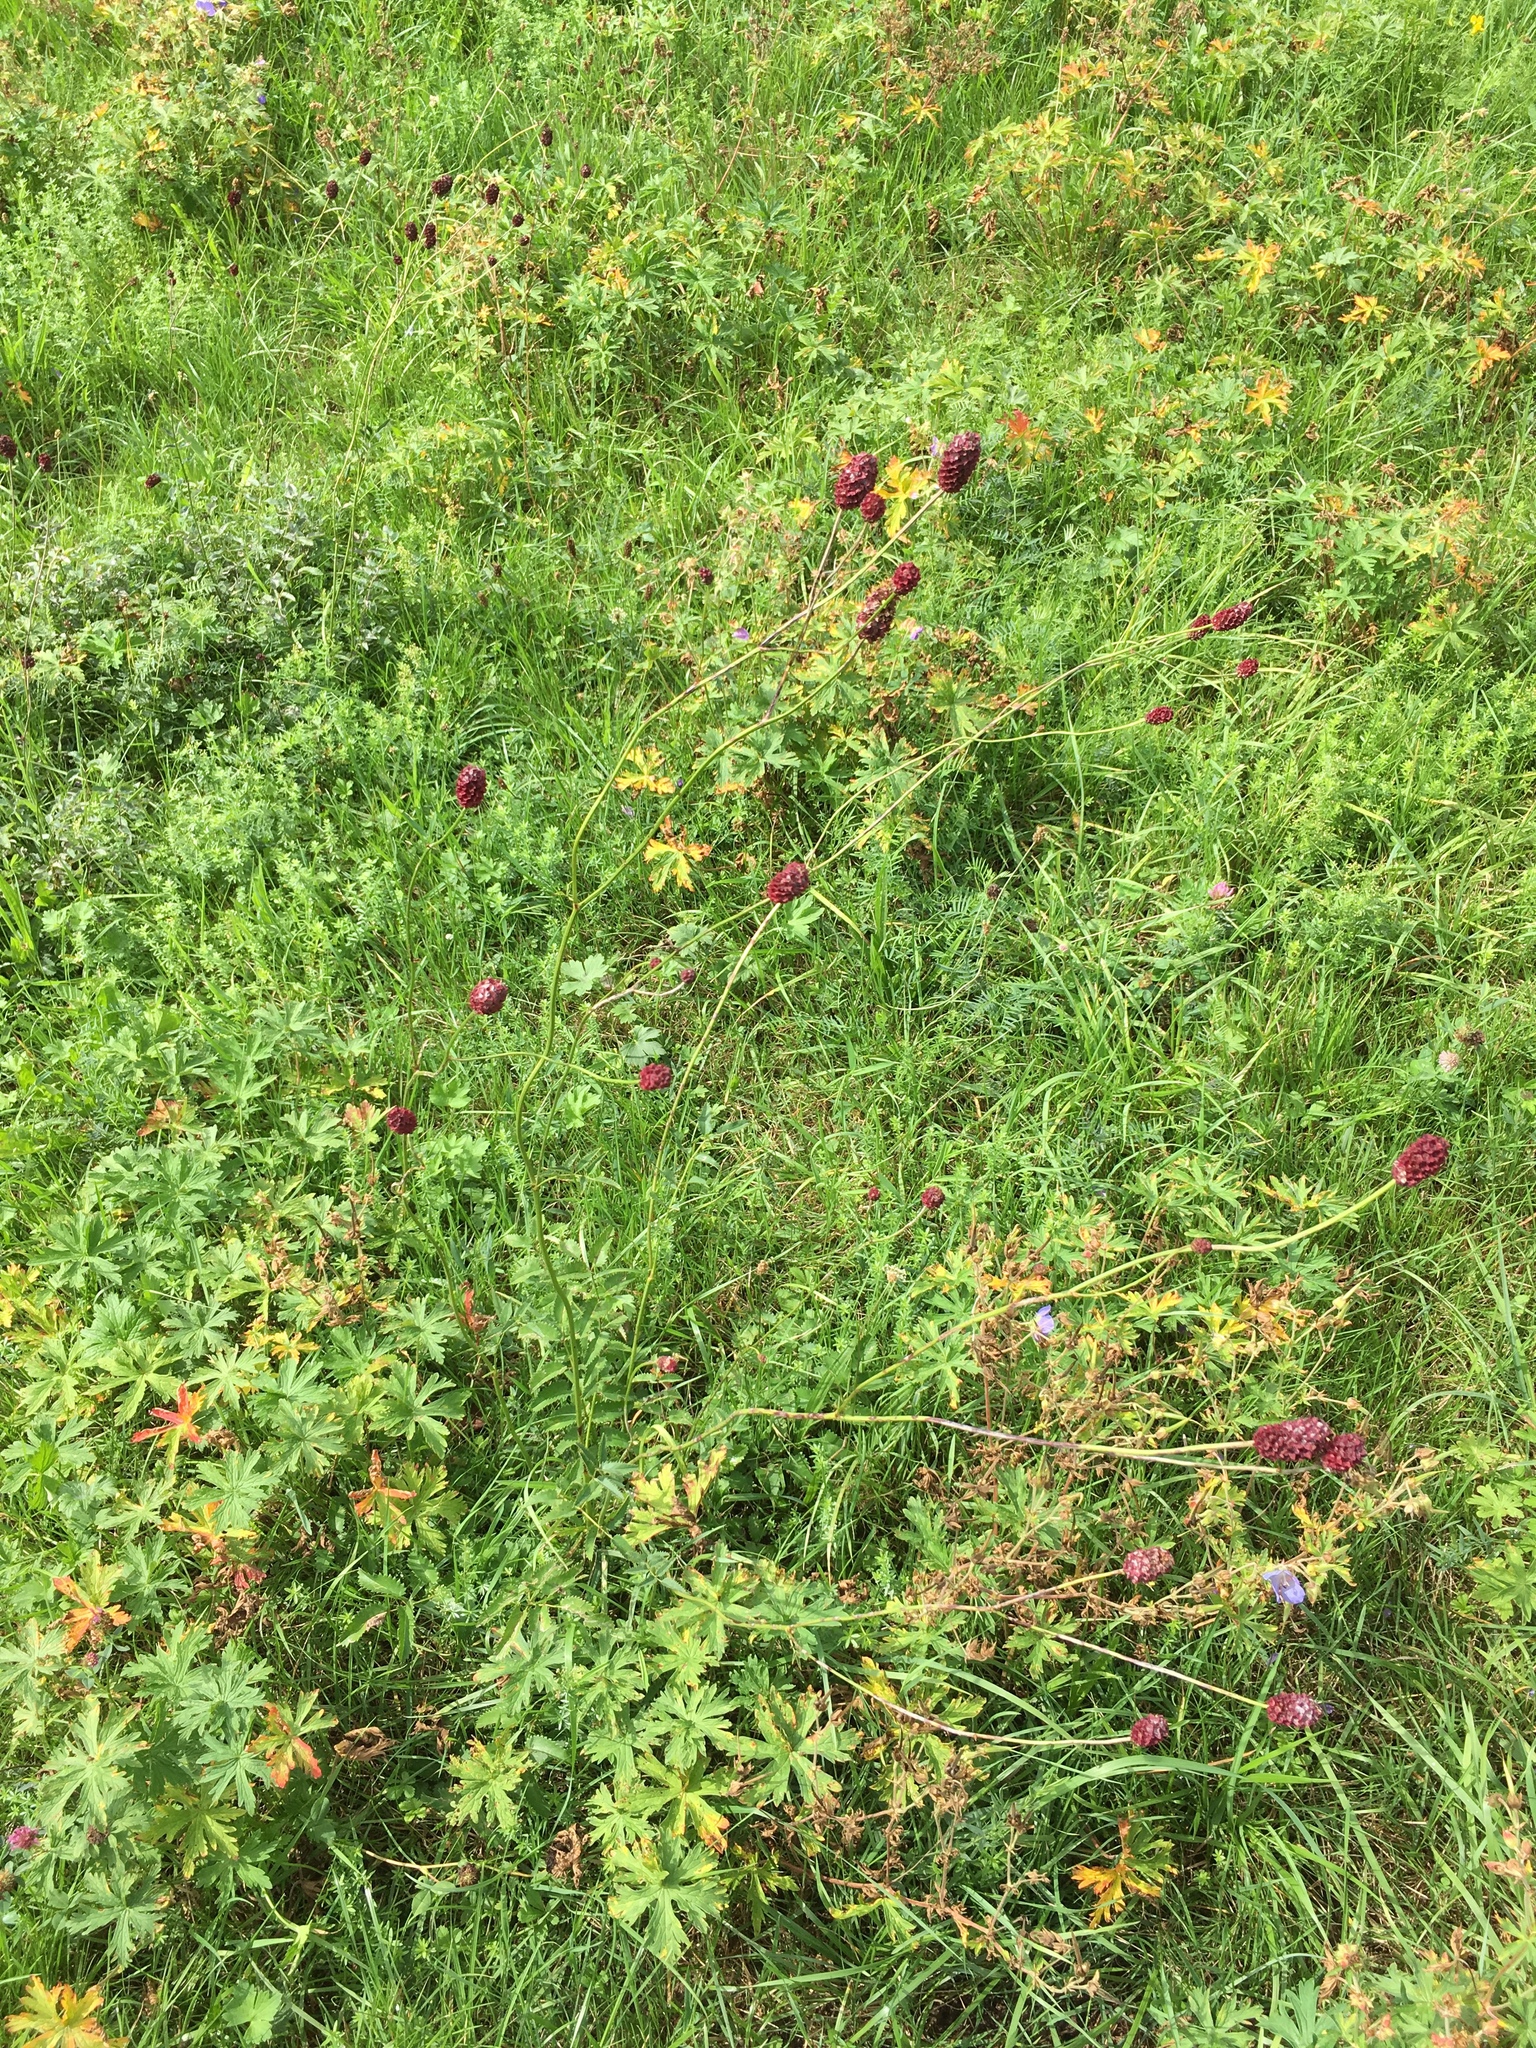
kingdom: Plantae
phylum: Tracheophyta
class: Magnoliopsida
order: Rosales
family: Rosaceae
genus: Sanguisorba
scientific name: Sanguisorba officinalis
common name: Great burnet
